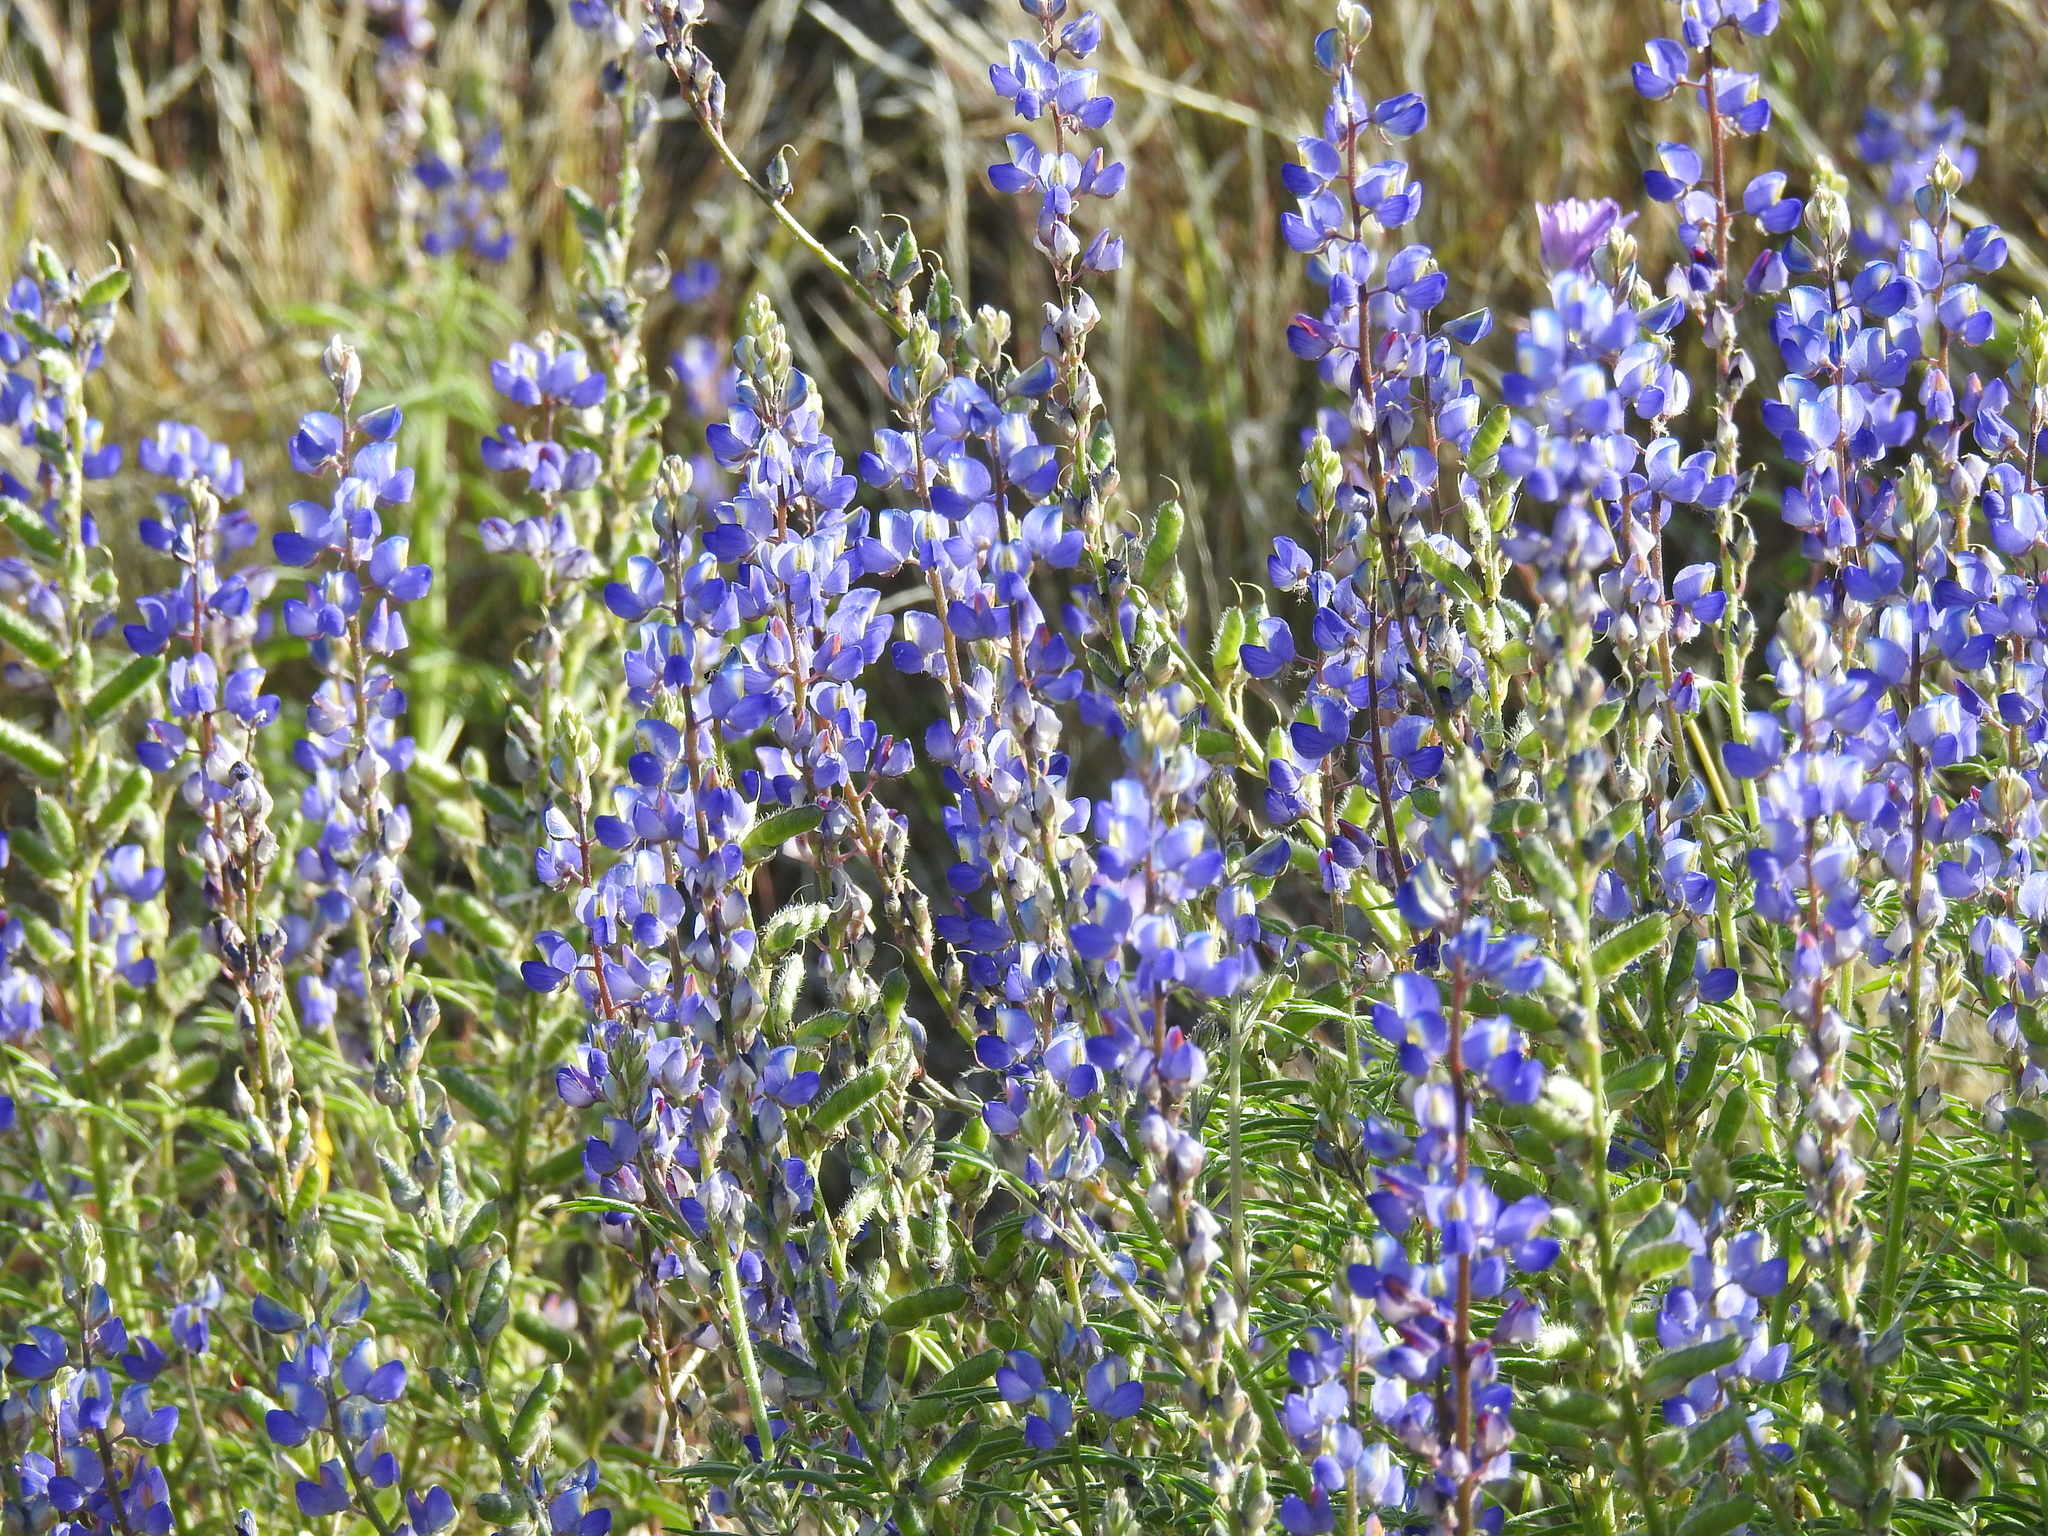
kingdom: Plantae
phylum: Tracheophyta
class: Magnoliopsida
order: Fabales
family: Fabaceae
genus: Lupinus
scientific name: Lupinus sparsiflorus
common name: Coulter's lupine
